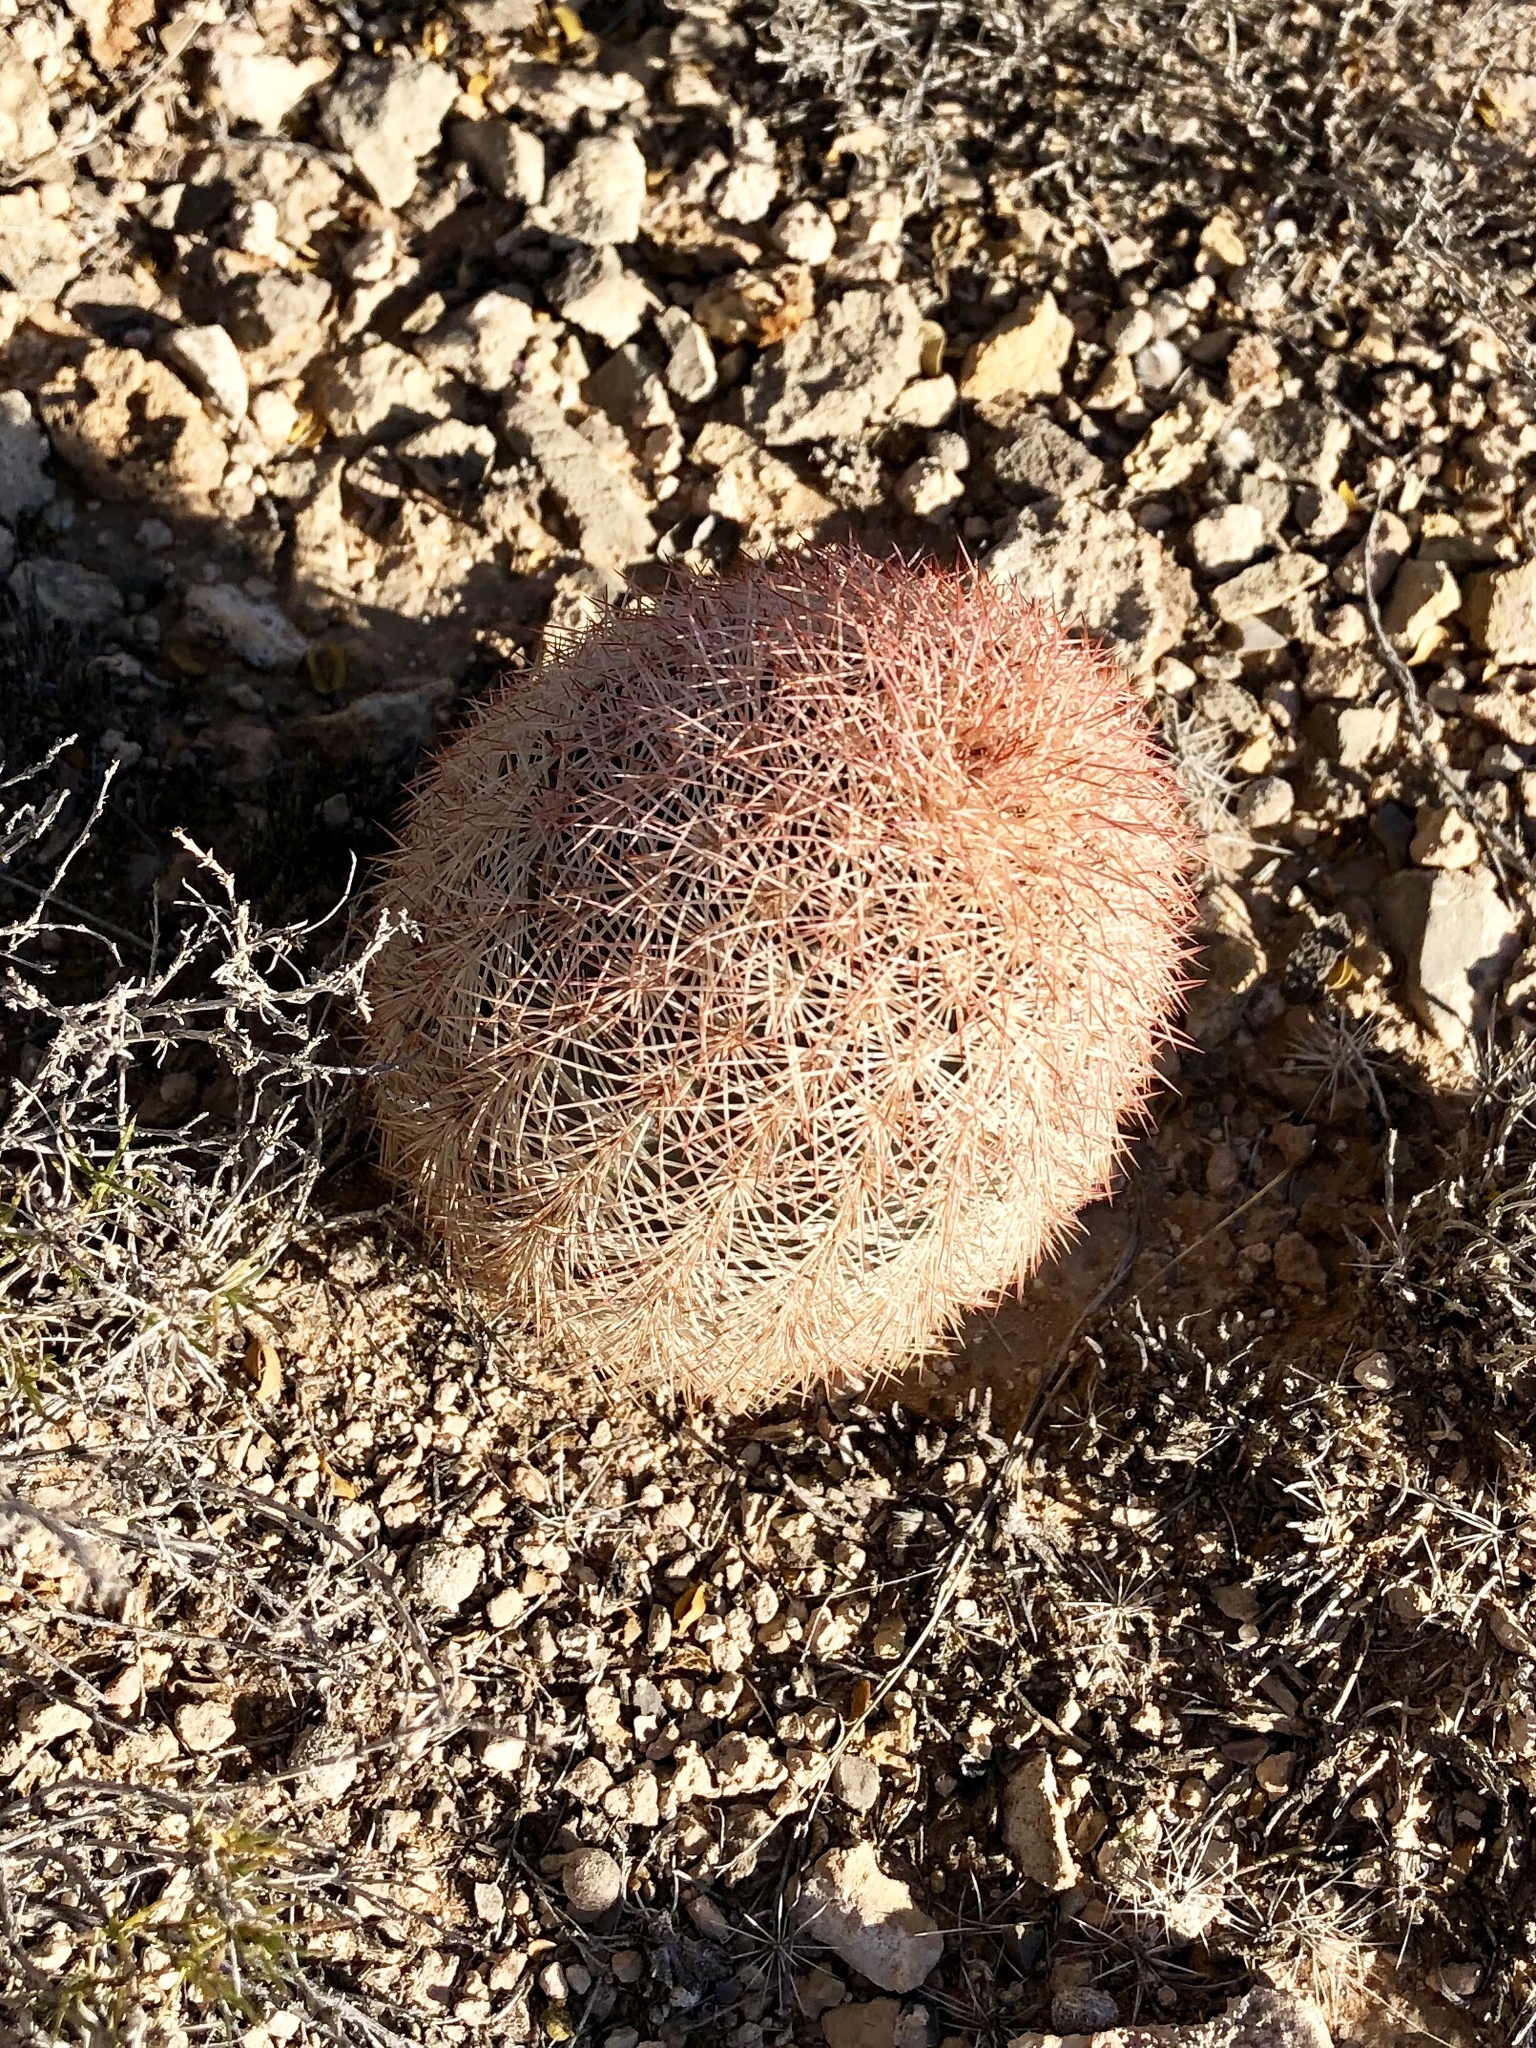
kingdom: Plantae
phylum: Tracheophyta
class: Magnoliopsida
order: Caryophyllales
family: Cactaceae
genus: Echinocereus
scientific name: Echinocereus dasyacanthus
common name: Spiny hedgehog cactus
